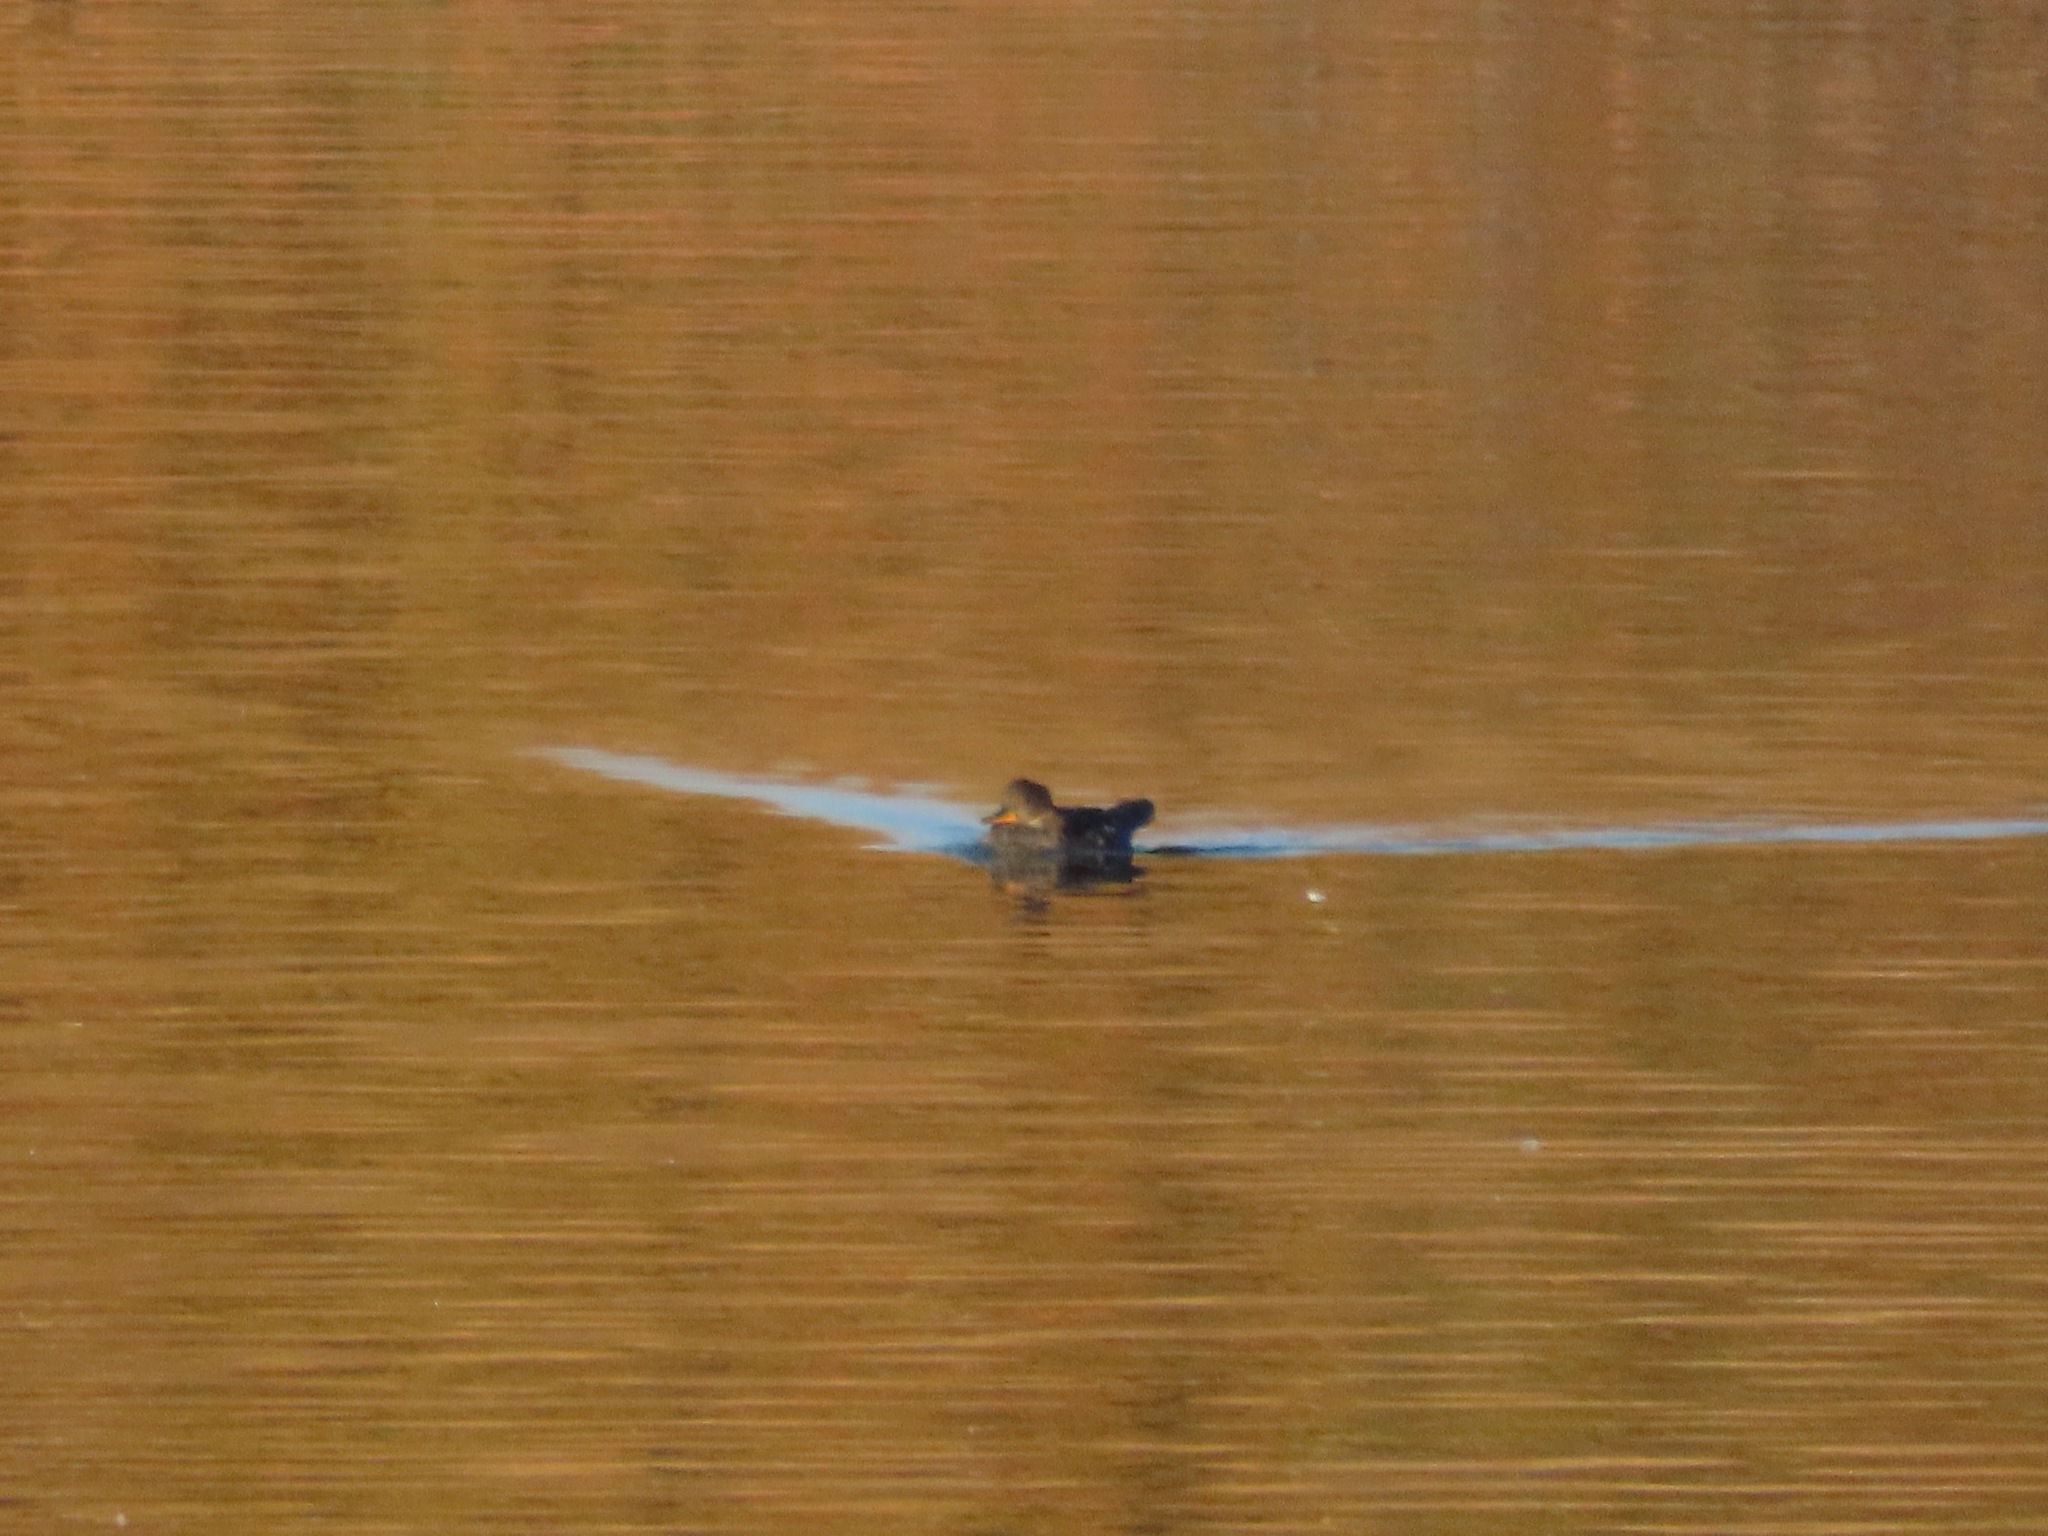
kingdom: Animalia
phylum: Chordata
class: Aves
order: Anseriformes
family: Anatidae
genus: Lophodytes
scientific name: Lophodytes cucullatus
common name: Hooded merganser
